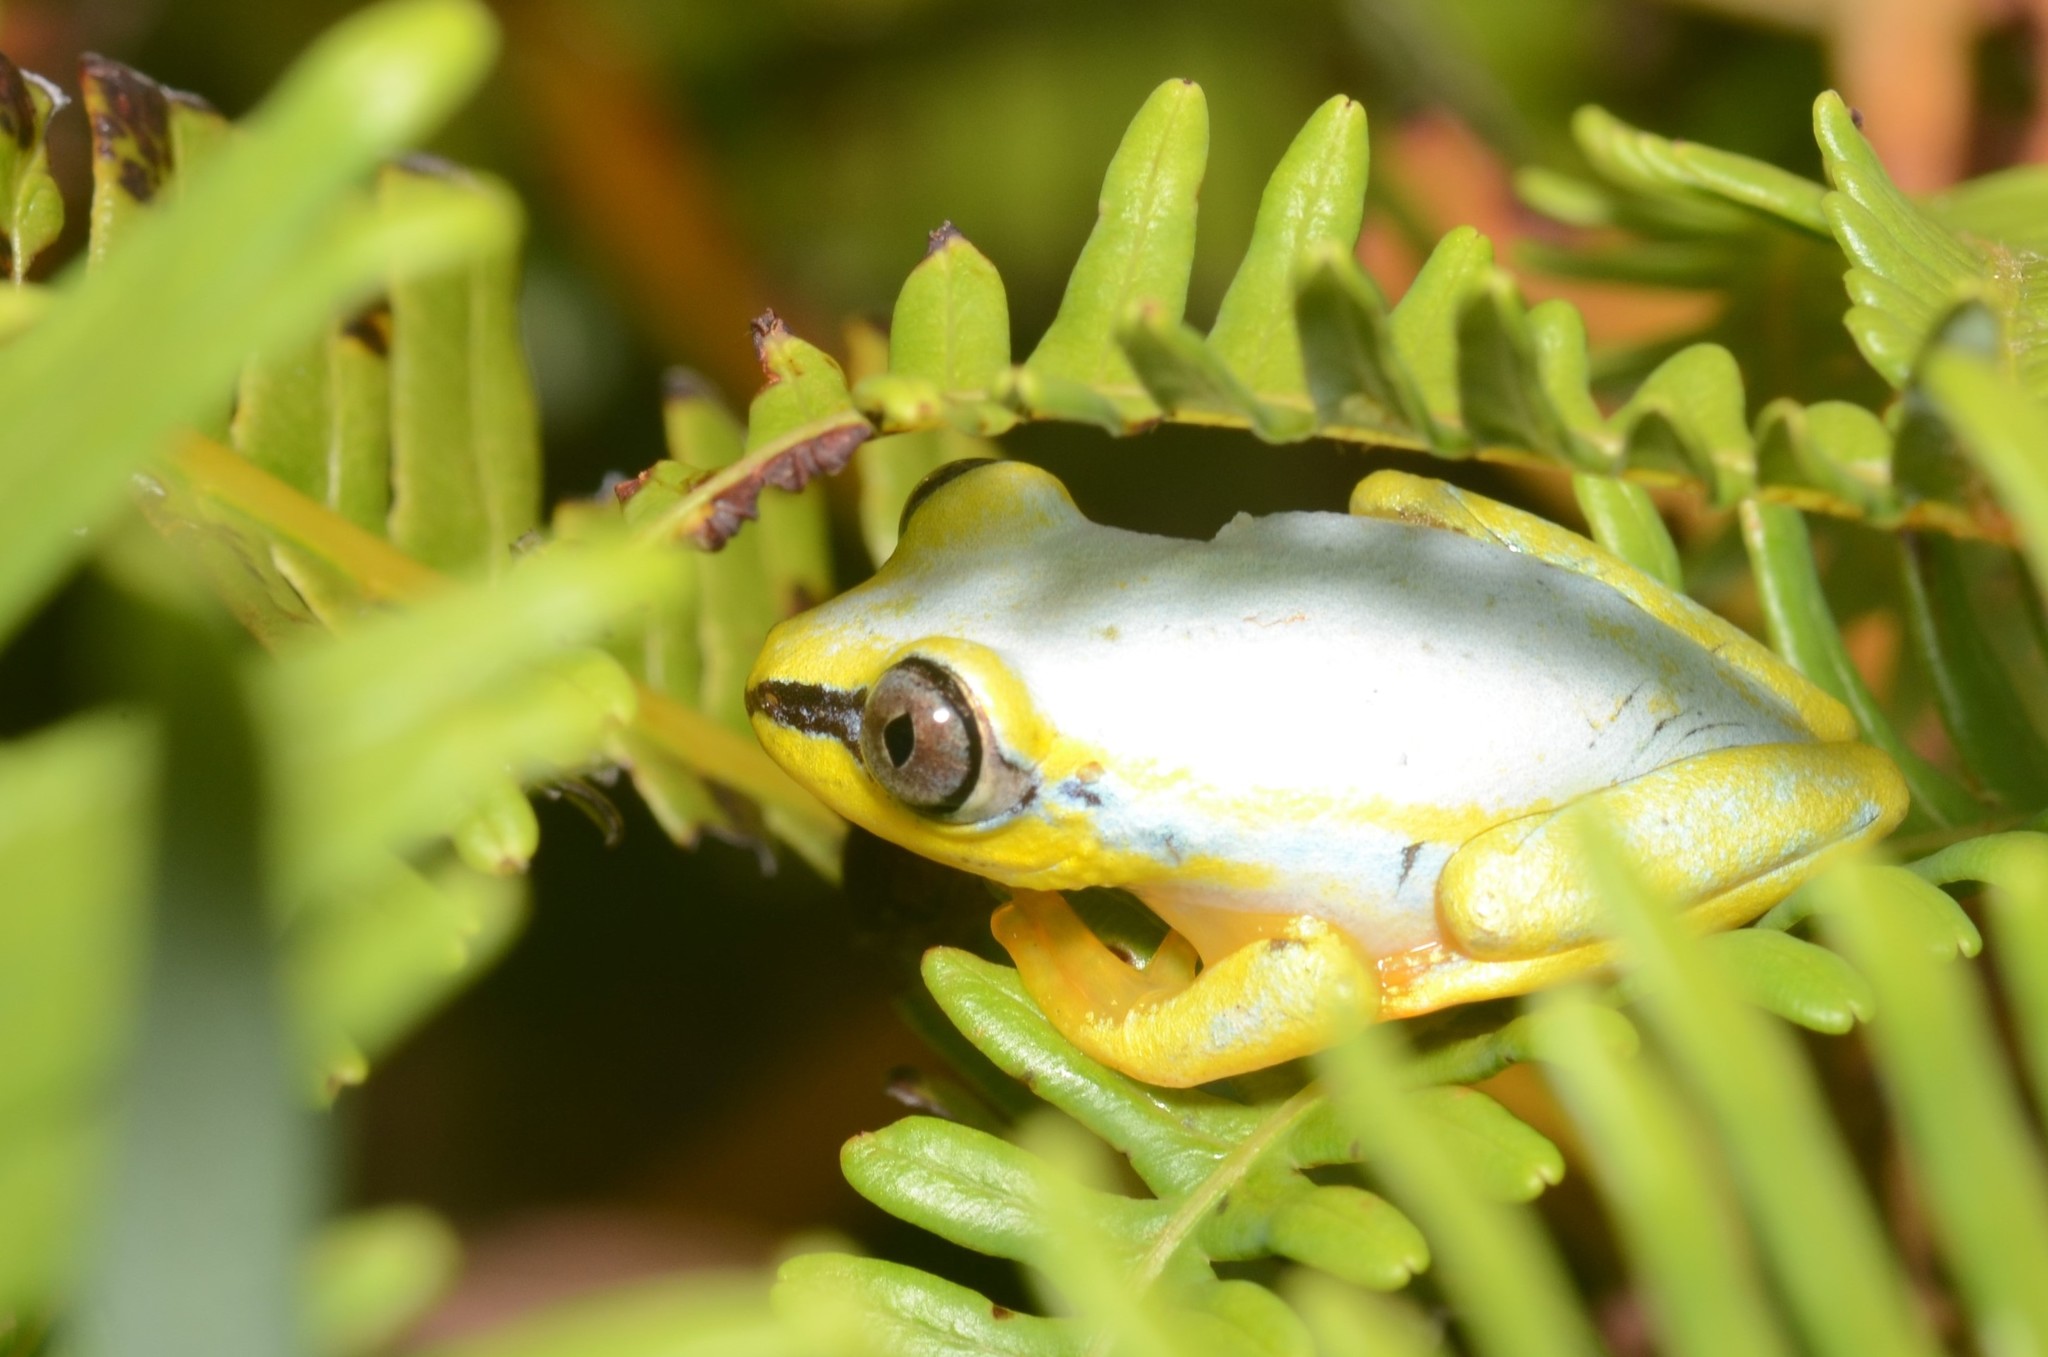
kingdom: Animalia
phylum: Chordata
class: Amphibia
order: Anura
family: Hyperoliidae
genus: Heterixalus
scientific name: Heterixalus madagascariensis
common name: Madagascar reed frog
